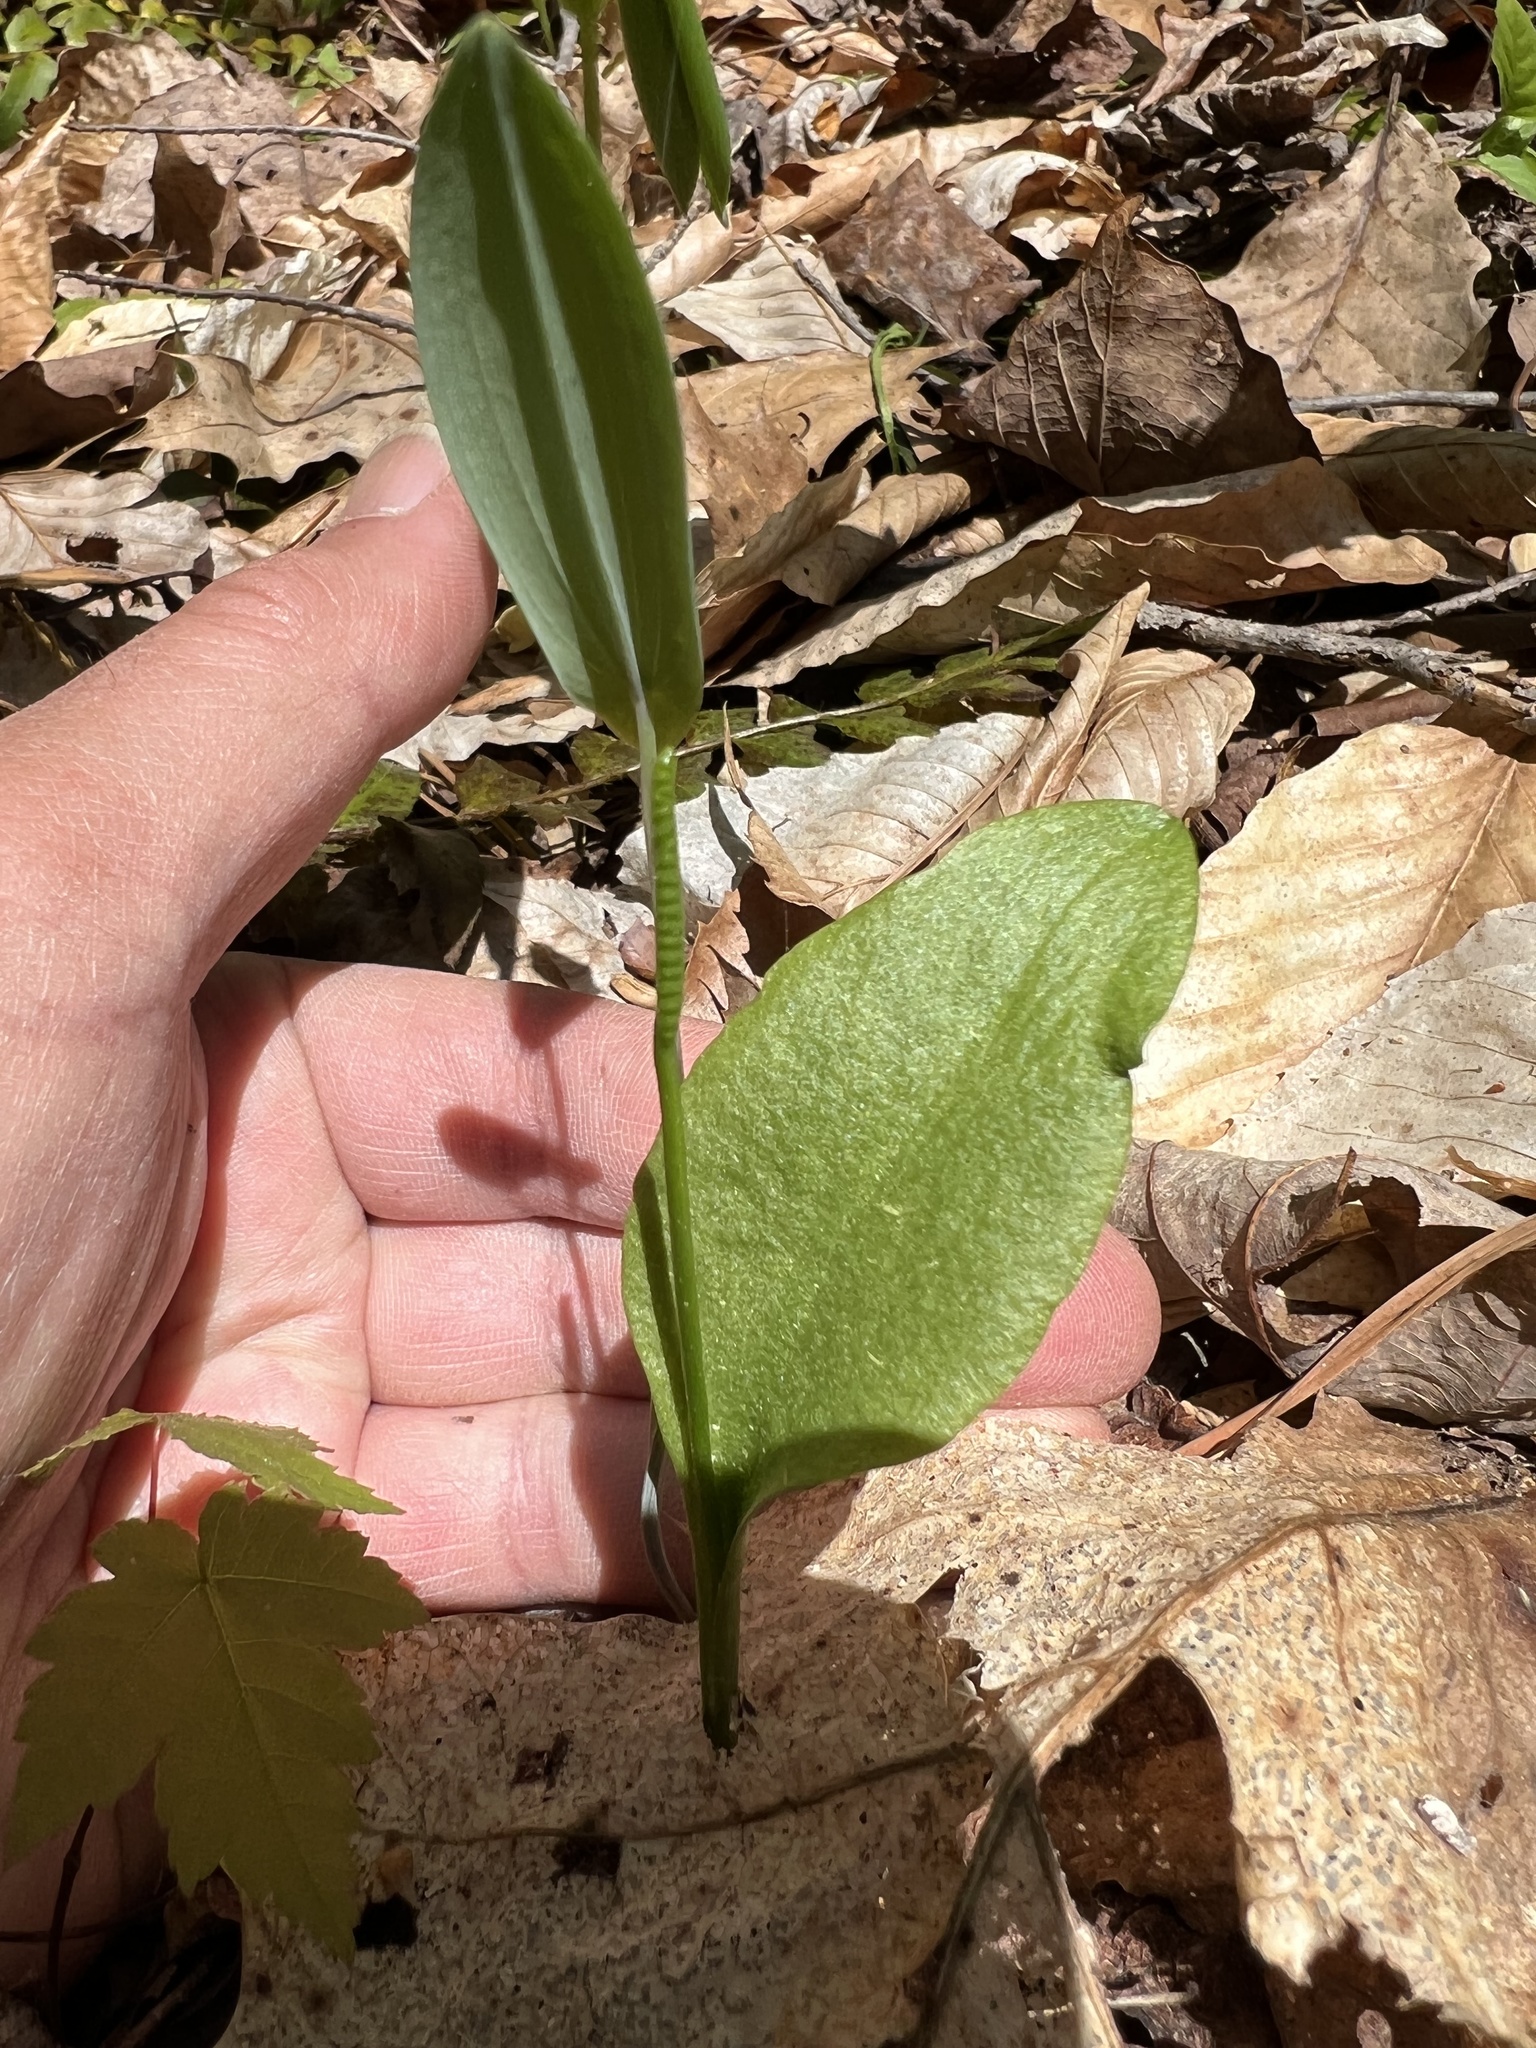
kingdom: Plantae
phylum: Tracheophyta
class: Polypodiopsida
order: Ophioglossales
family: Ophioglossaceae
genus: Ophioglossum
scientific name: Ophioglossum vulgatum
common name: Adder's-tongue
